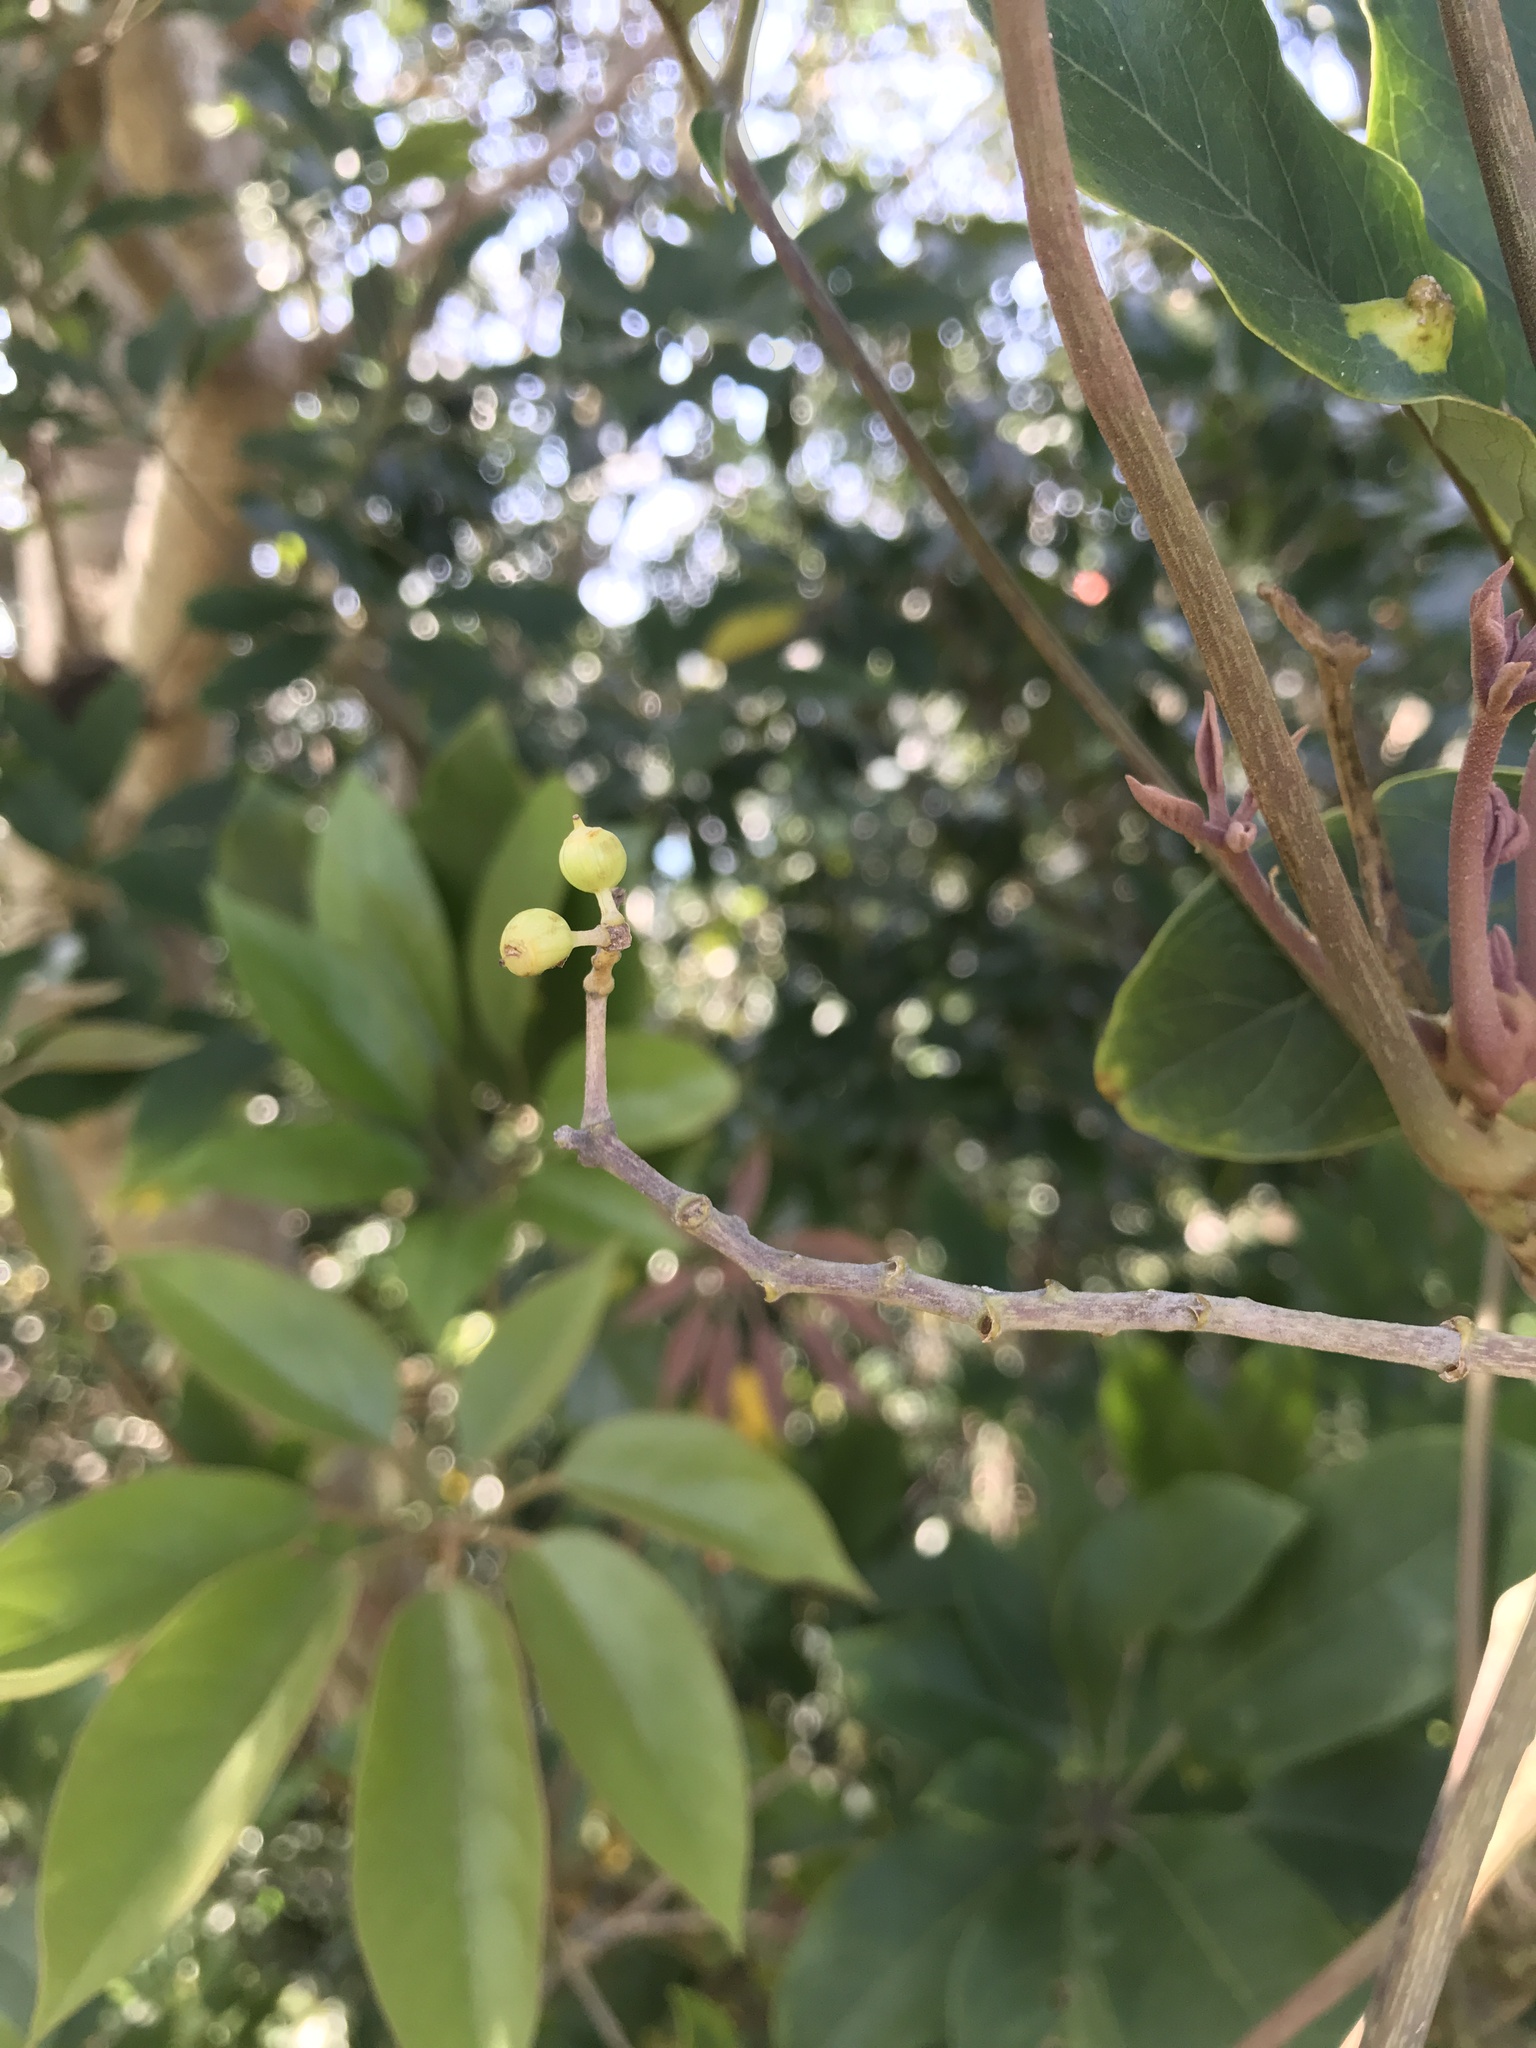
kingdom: Plantae
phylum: Tracheophyta
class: Magnoliopsida
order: Apiales
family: Araliaceae
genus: Heptapleurum
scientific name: Heptapleurum heptaphyllum
